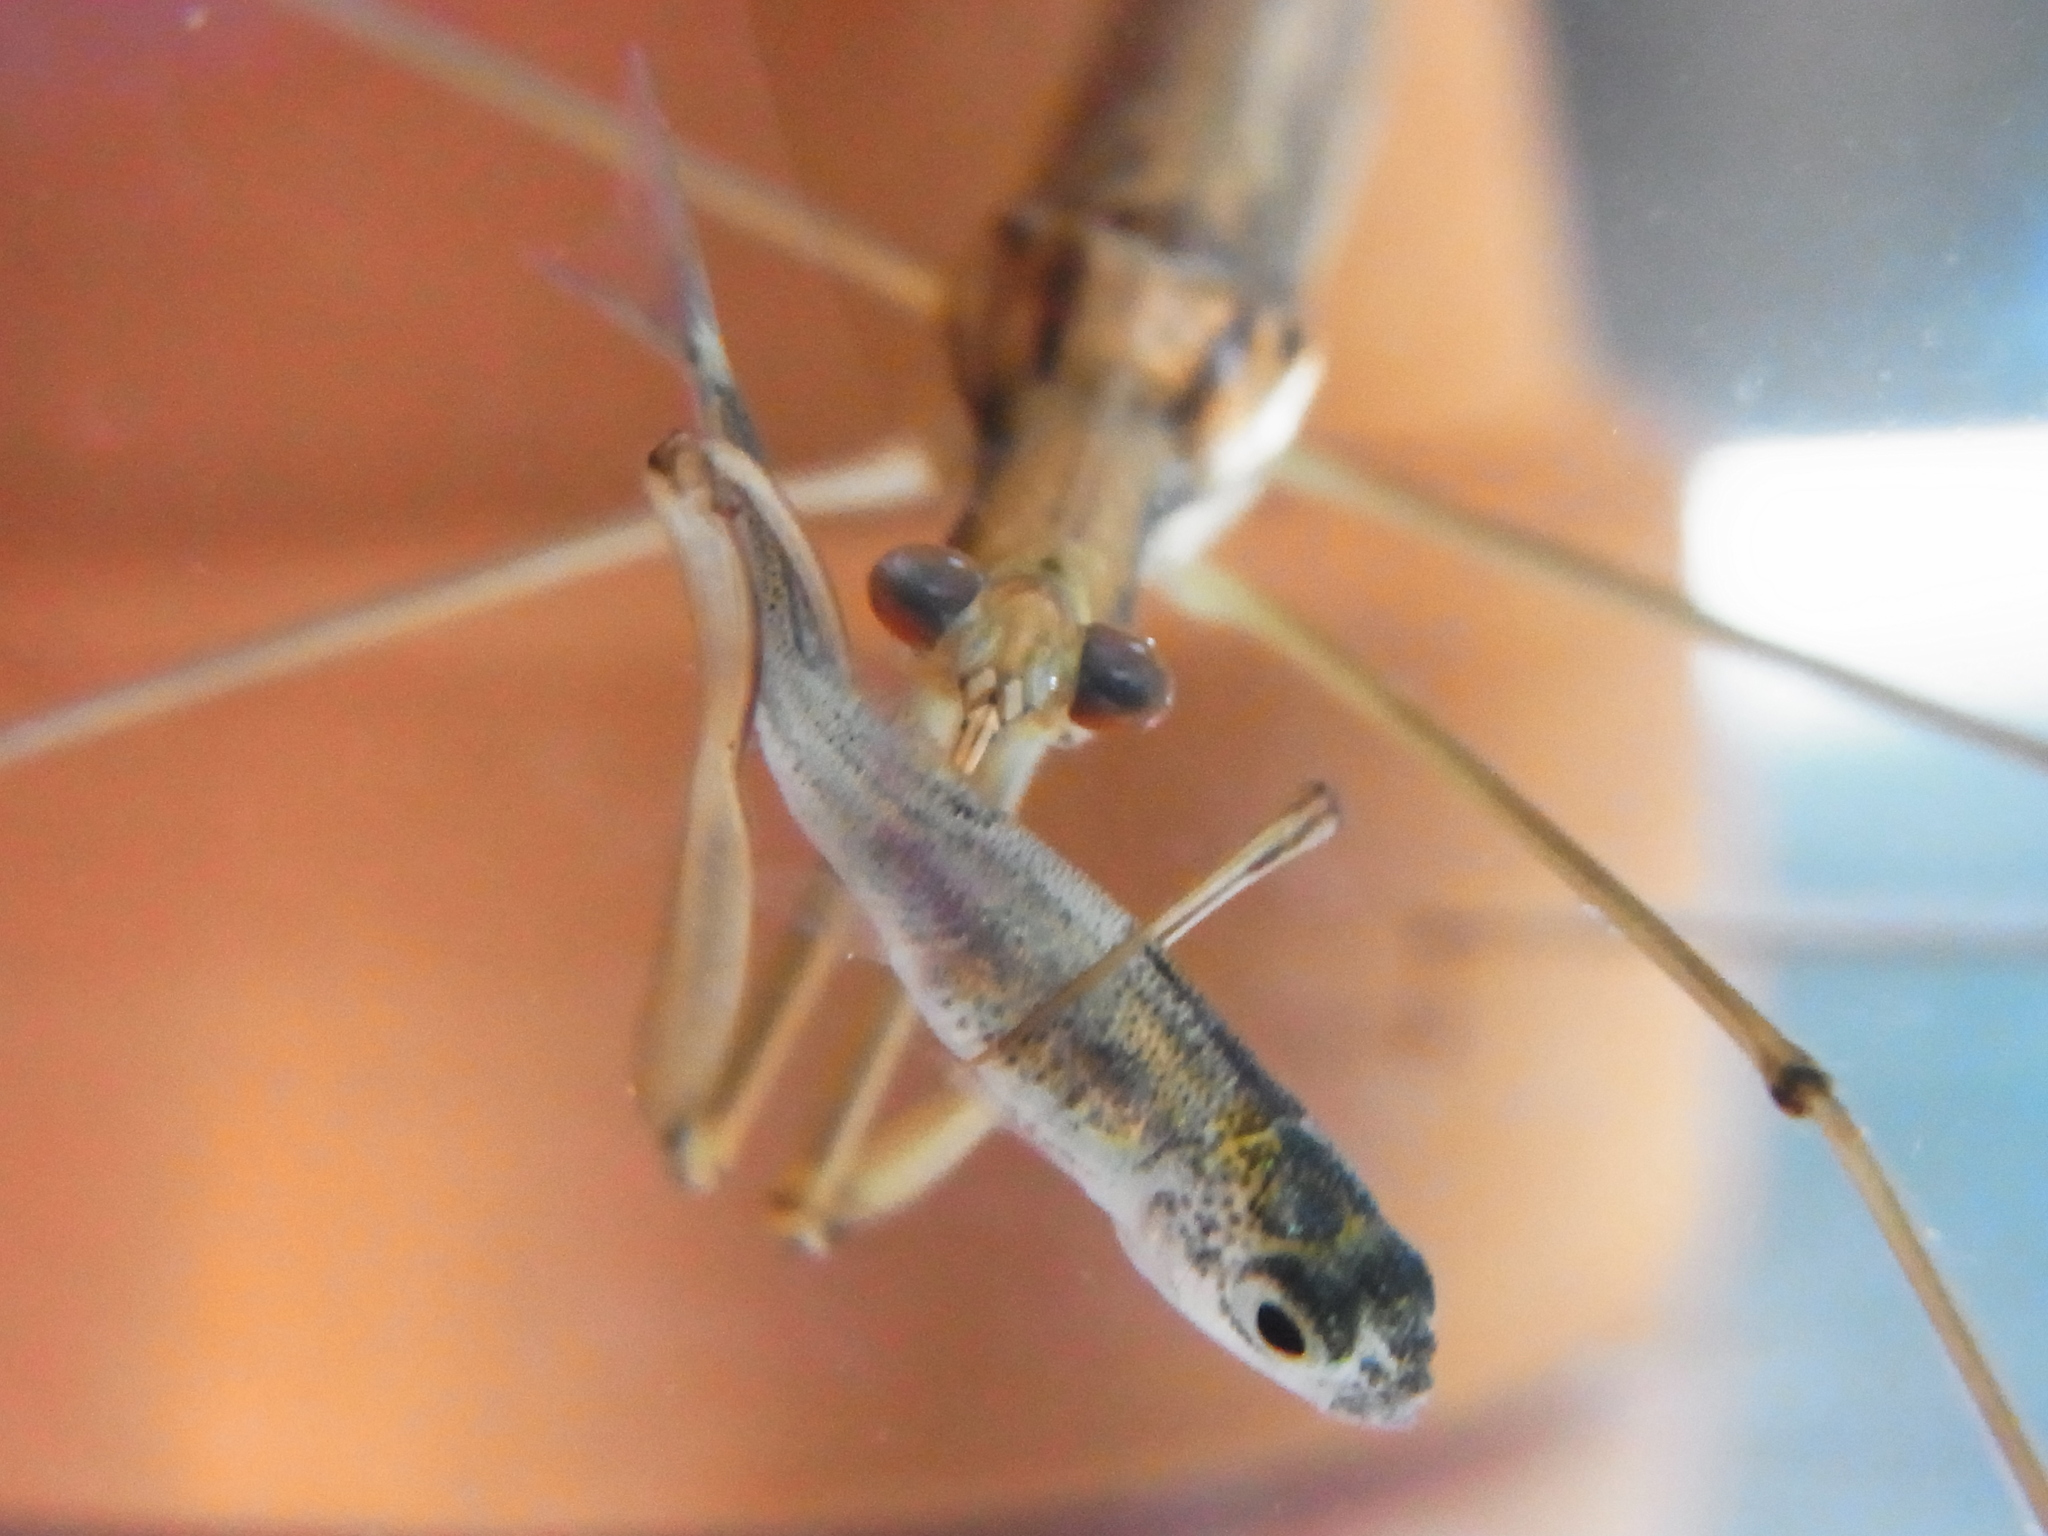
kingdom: Animalia
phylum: Arthropoda
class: Insecta
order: Hemiptera
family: Nepidae
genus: Ranatra
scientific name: Ranatra chinensis
